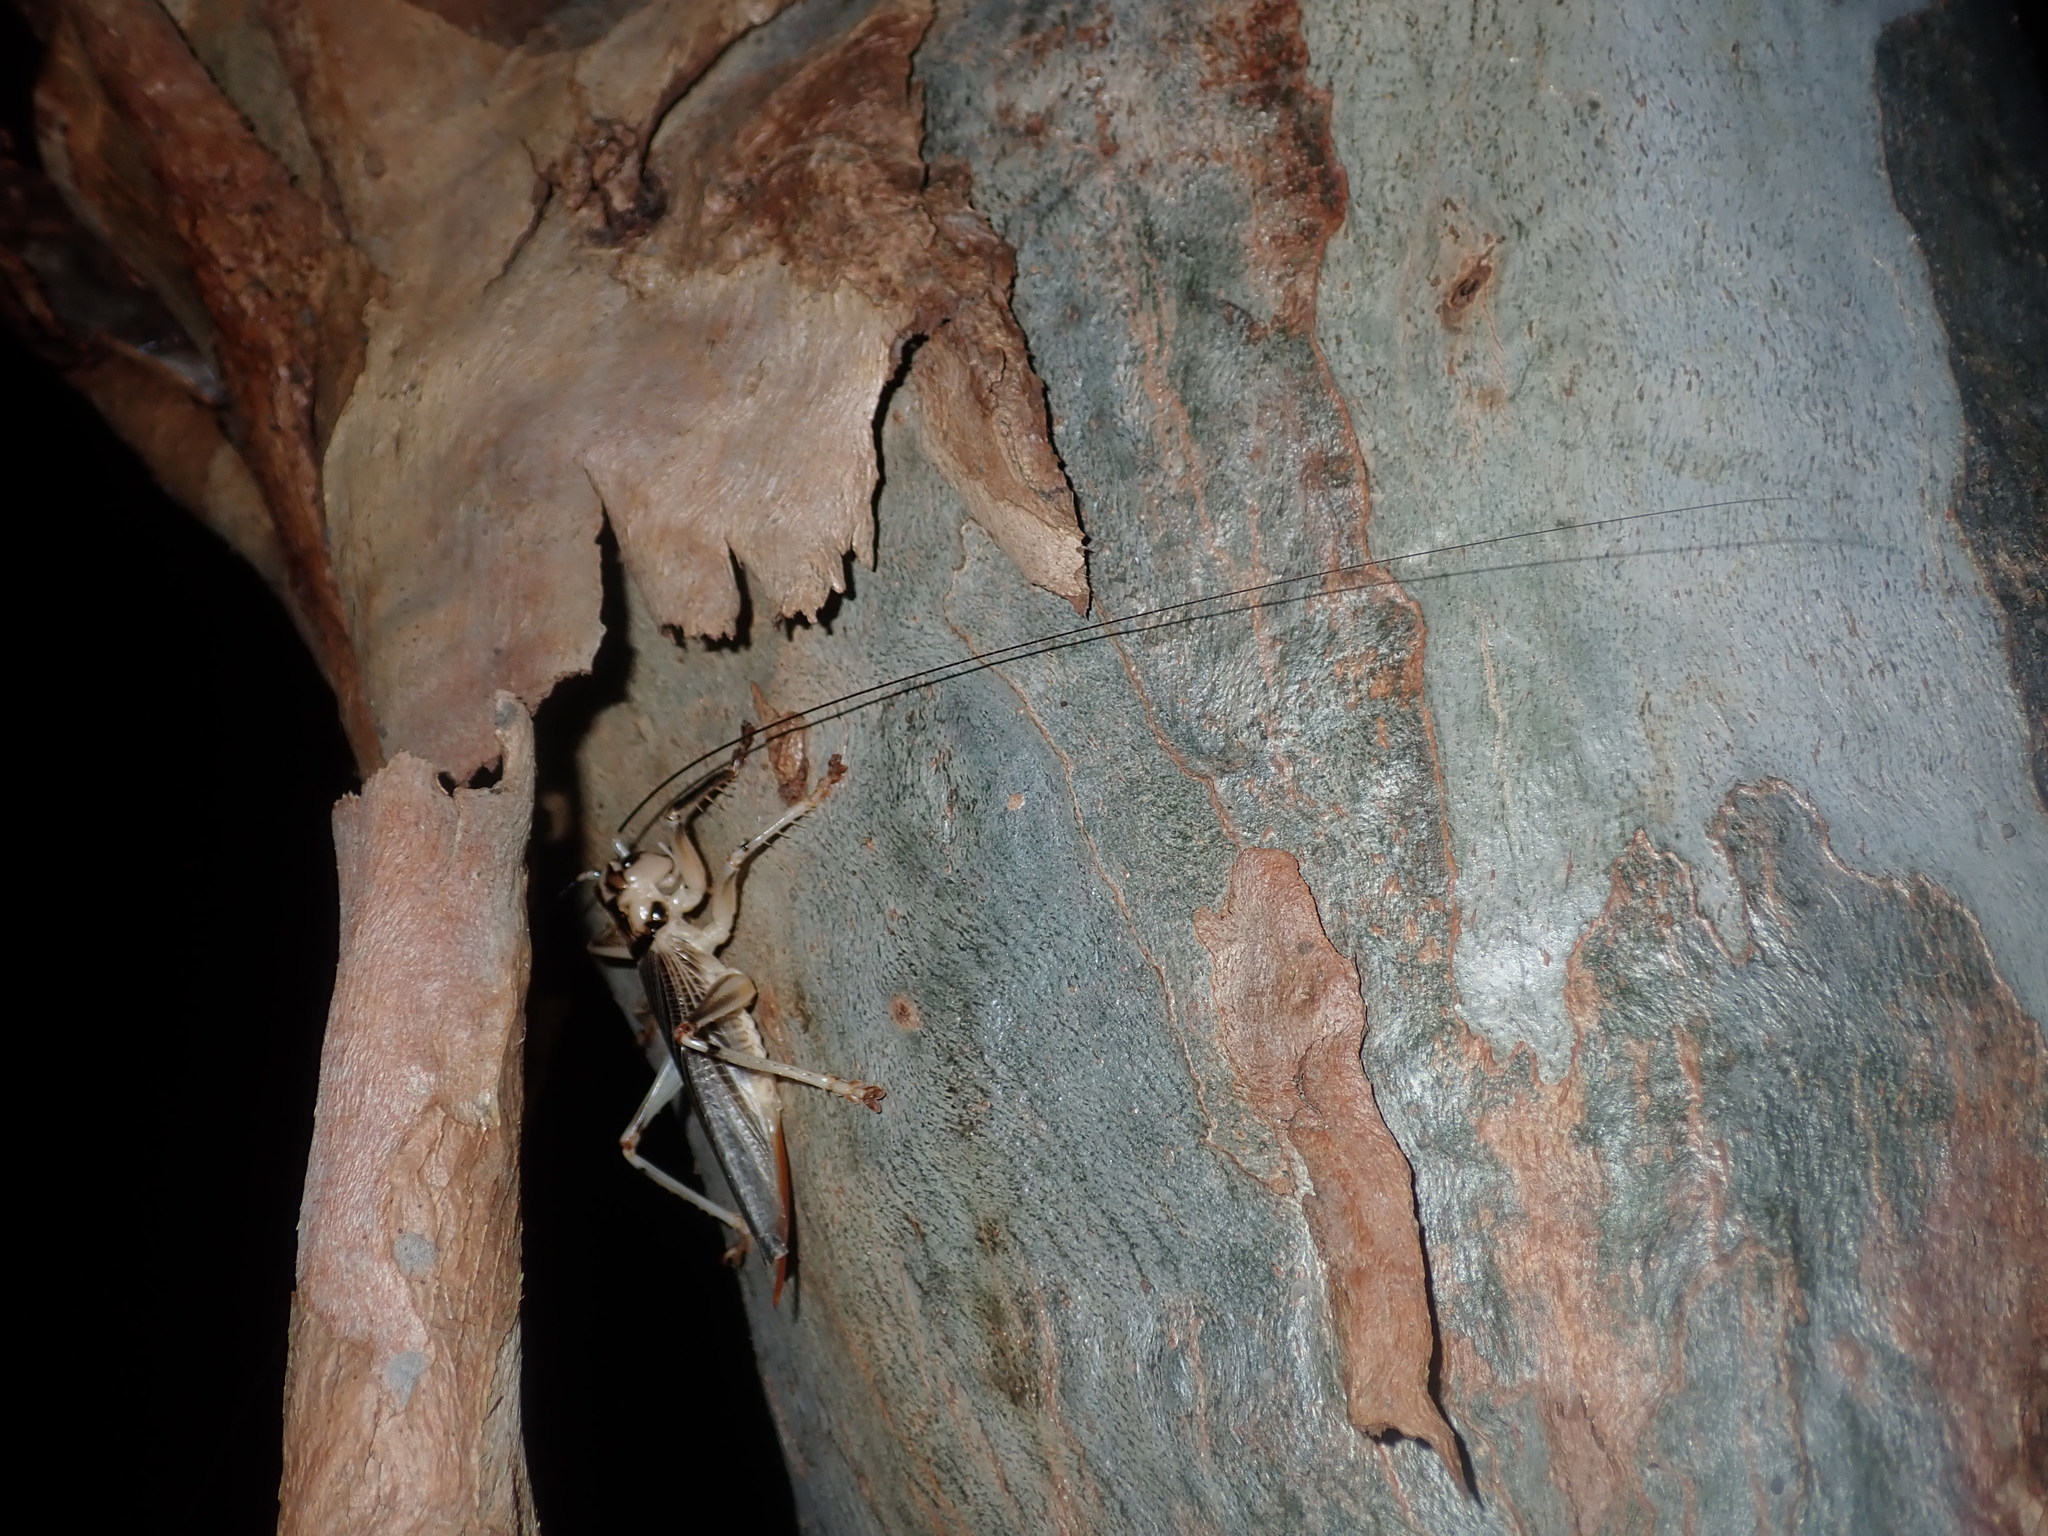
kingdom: Animalia
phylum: Arthropoda
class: Insecta
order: Orthoptera
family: Gryllacrididae
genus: Paragryllacris
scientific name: Paragryllacris combusta
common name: Striped raspy cricket
